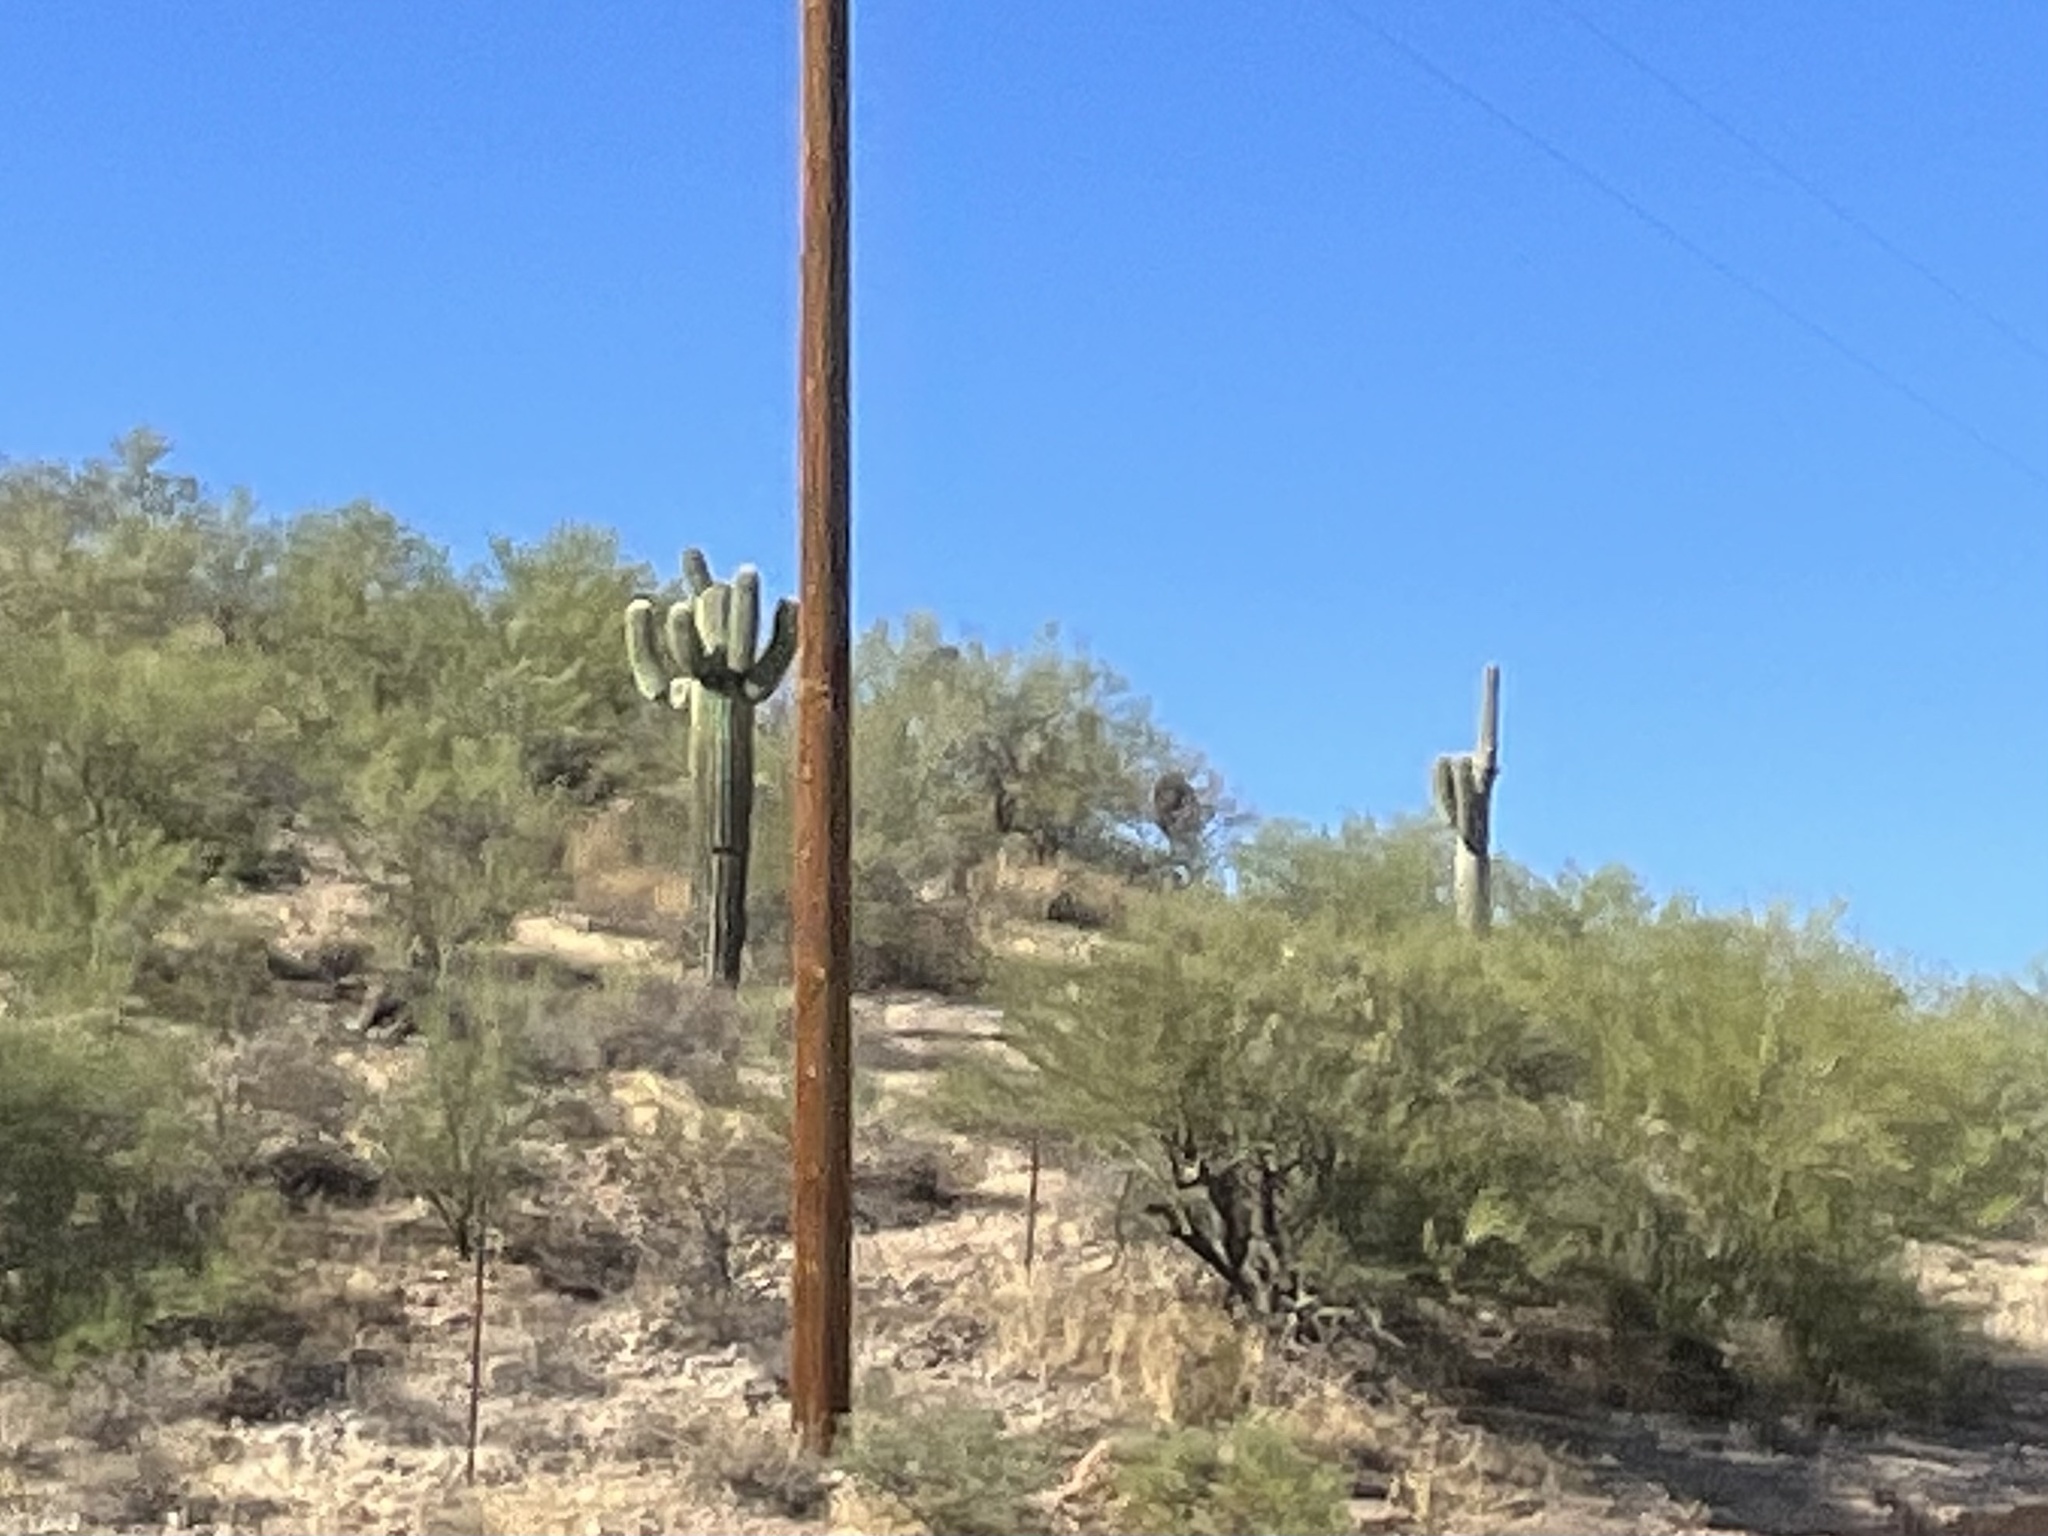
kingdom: Plantae
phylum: Tracheophyta
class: Magnoliopsida
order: Caryophyllales
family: Cactaceae
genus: Carnegiea
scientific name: Carnegiea gigantea
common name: Saguaro
